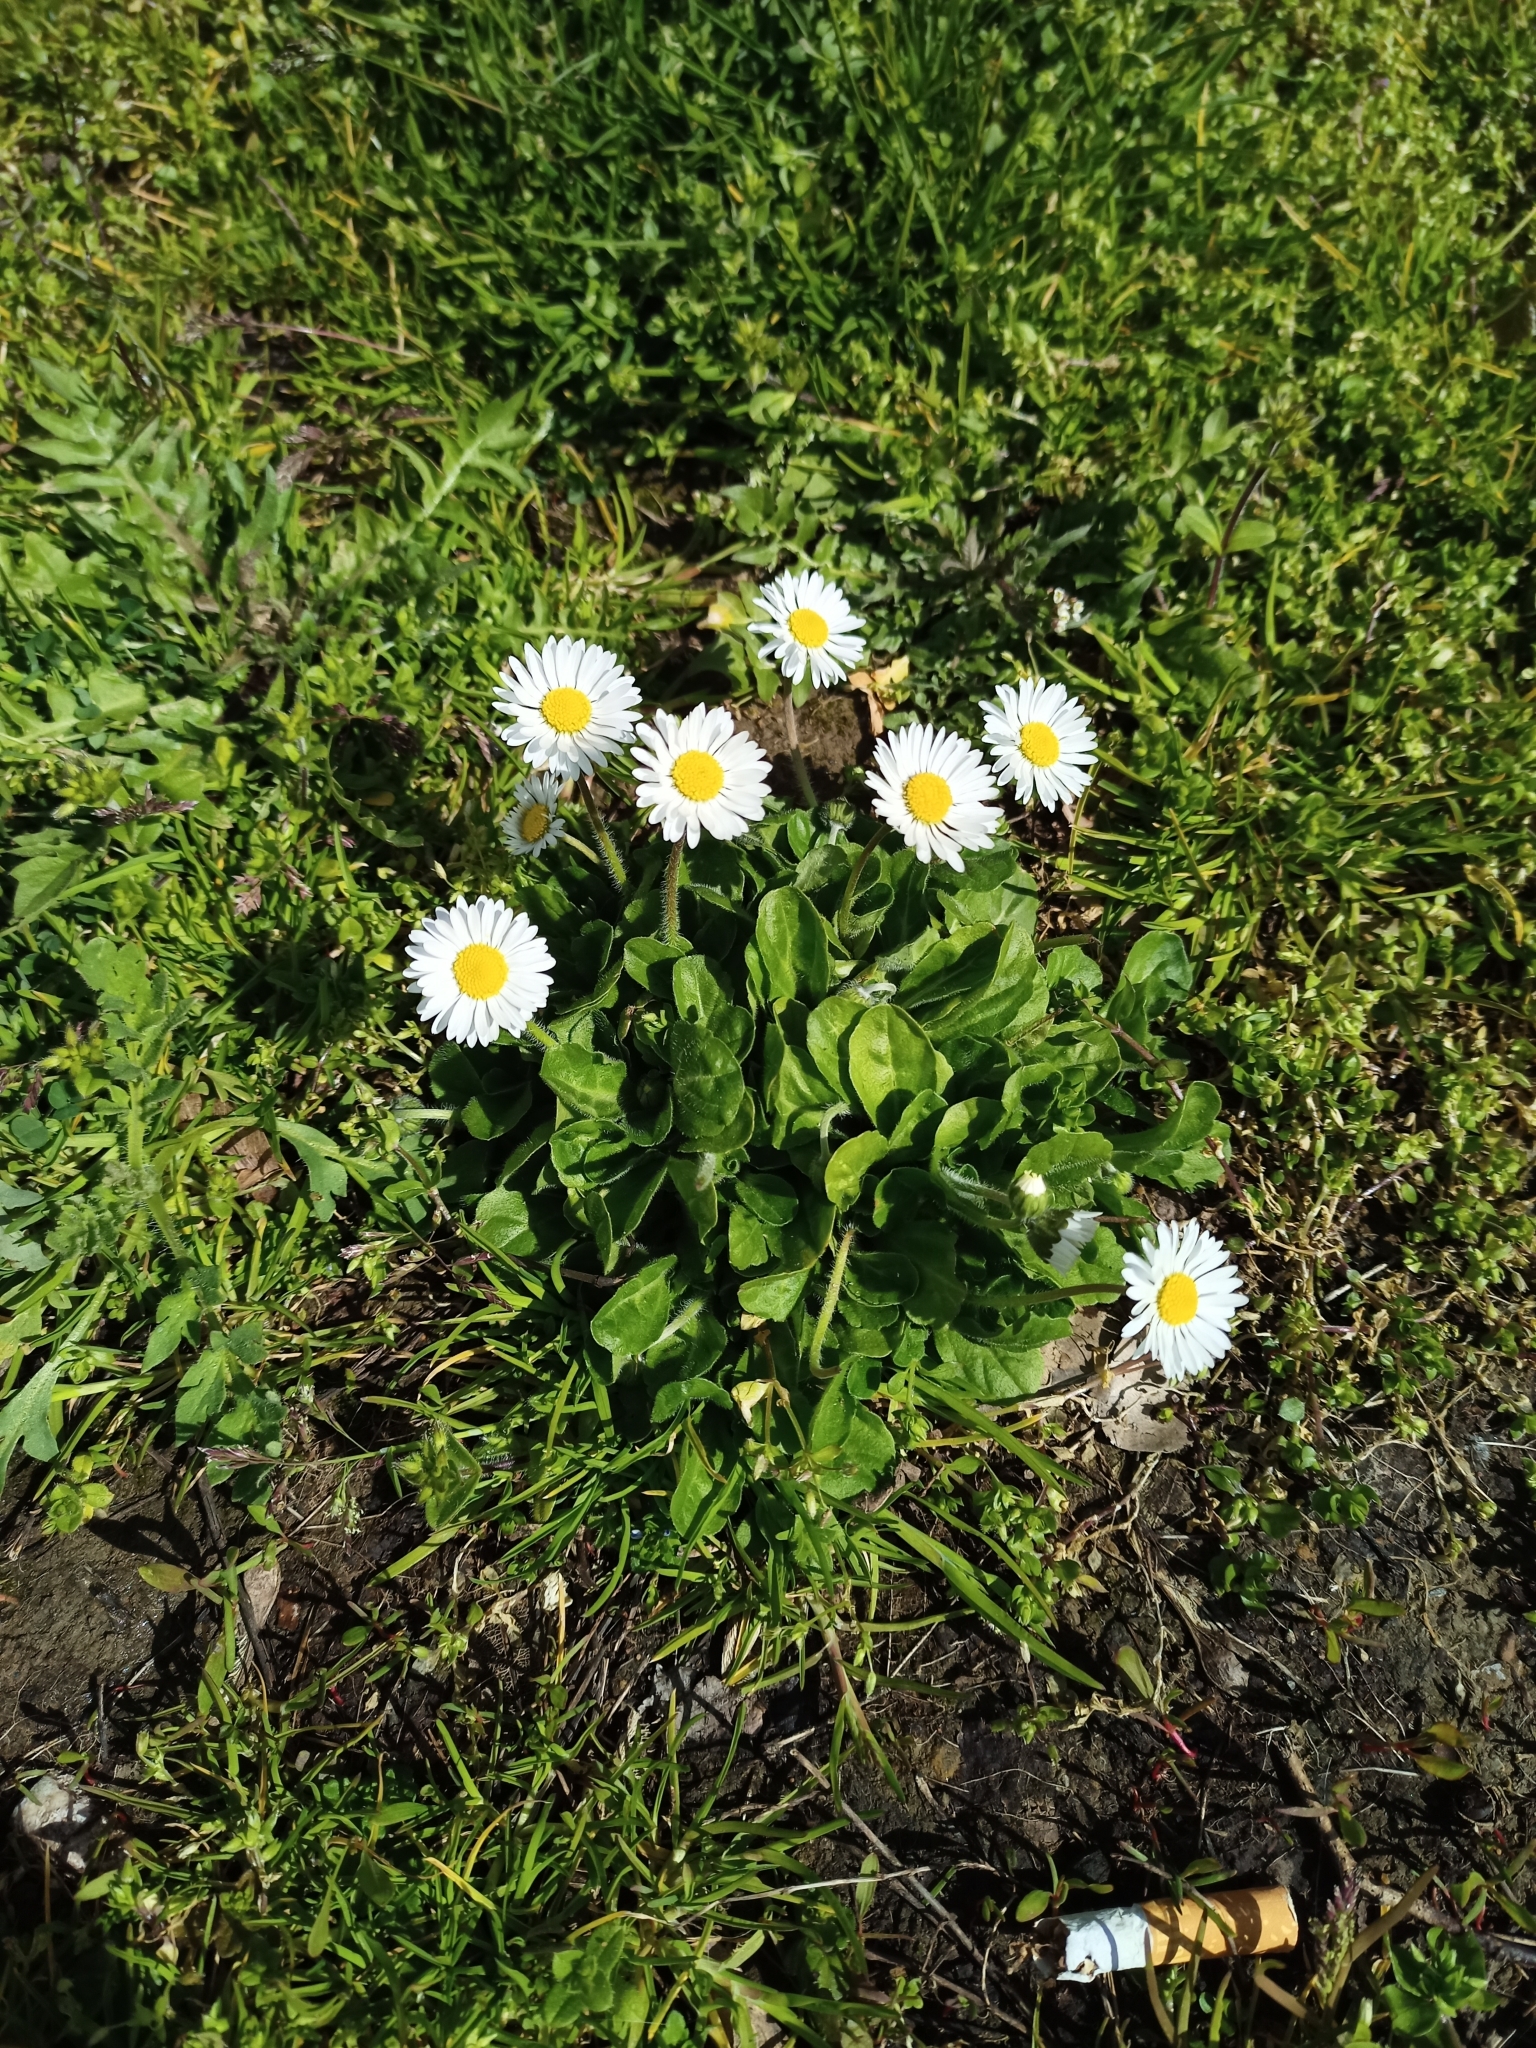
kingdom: Plantae
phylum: Tracheophyta
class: Magnoliopsida
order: Asterales
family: Asteraceae
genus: Bellis
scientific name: Bellis perennis
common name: Lawndaisy
